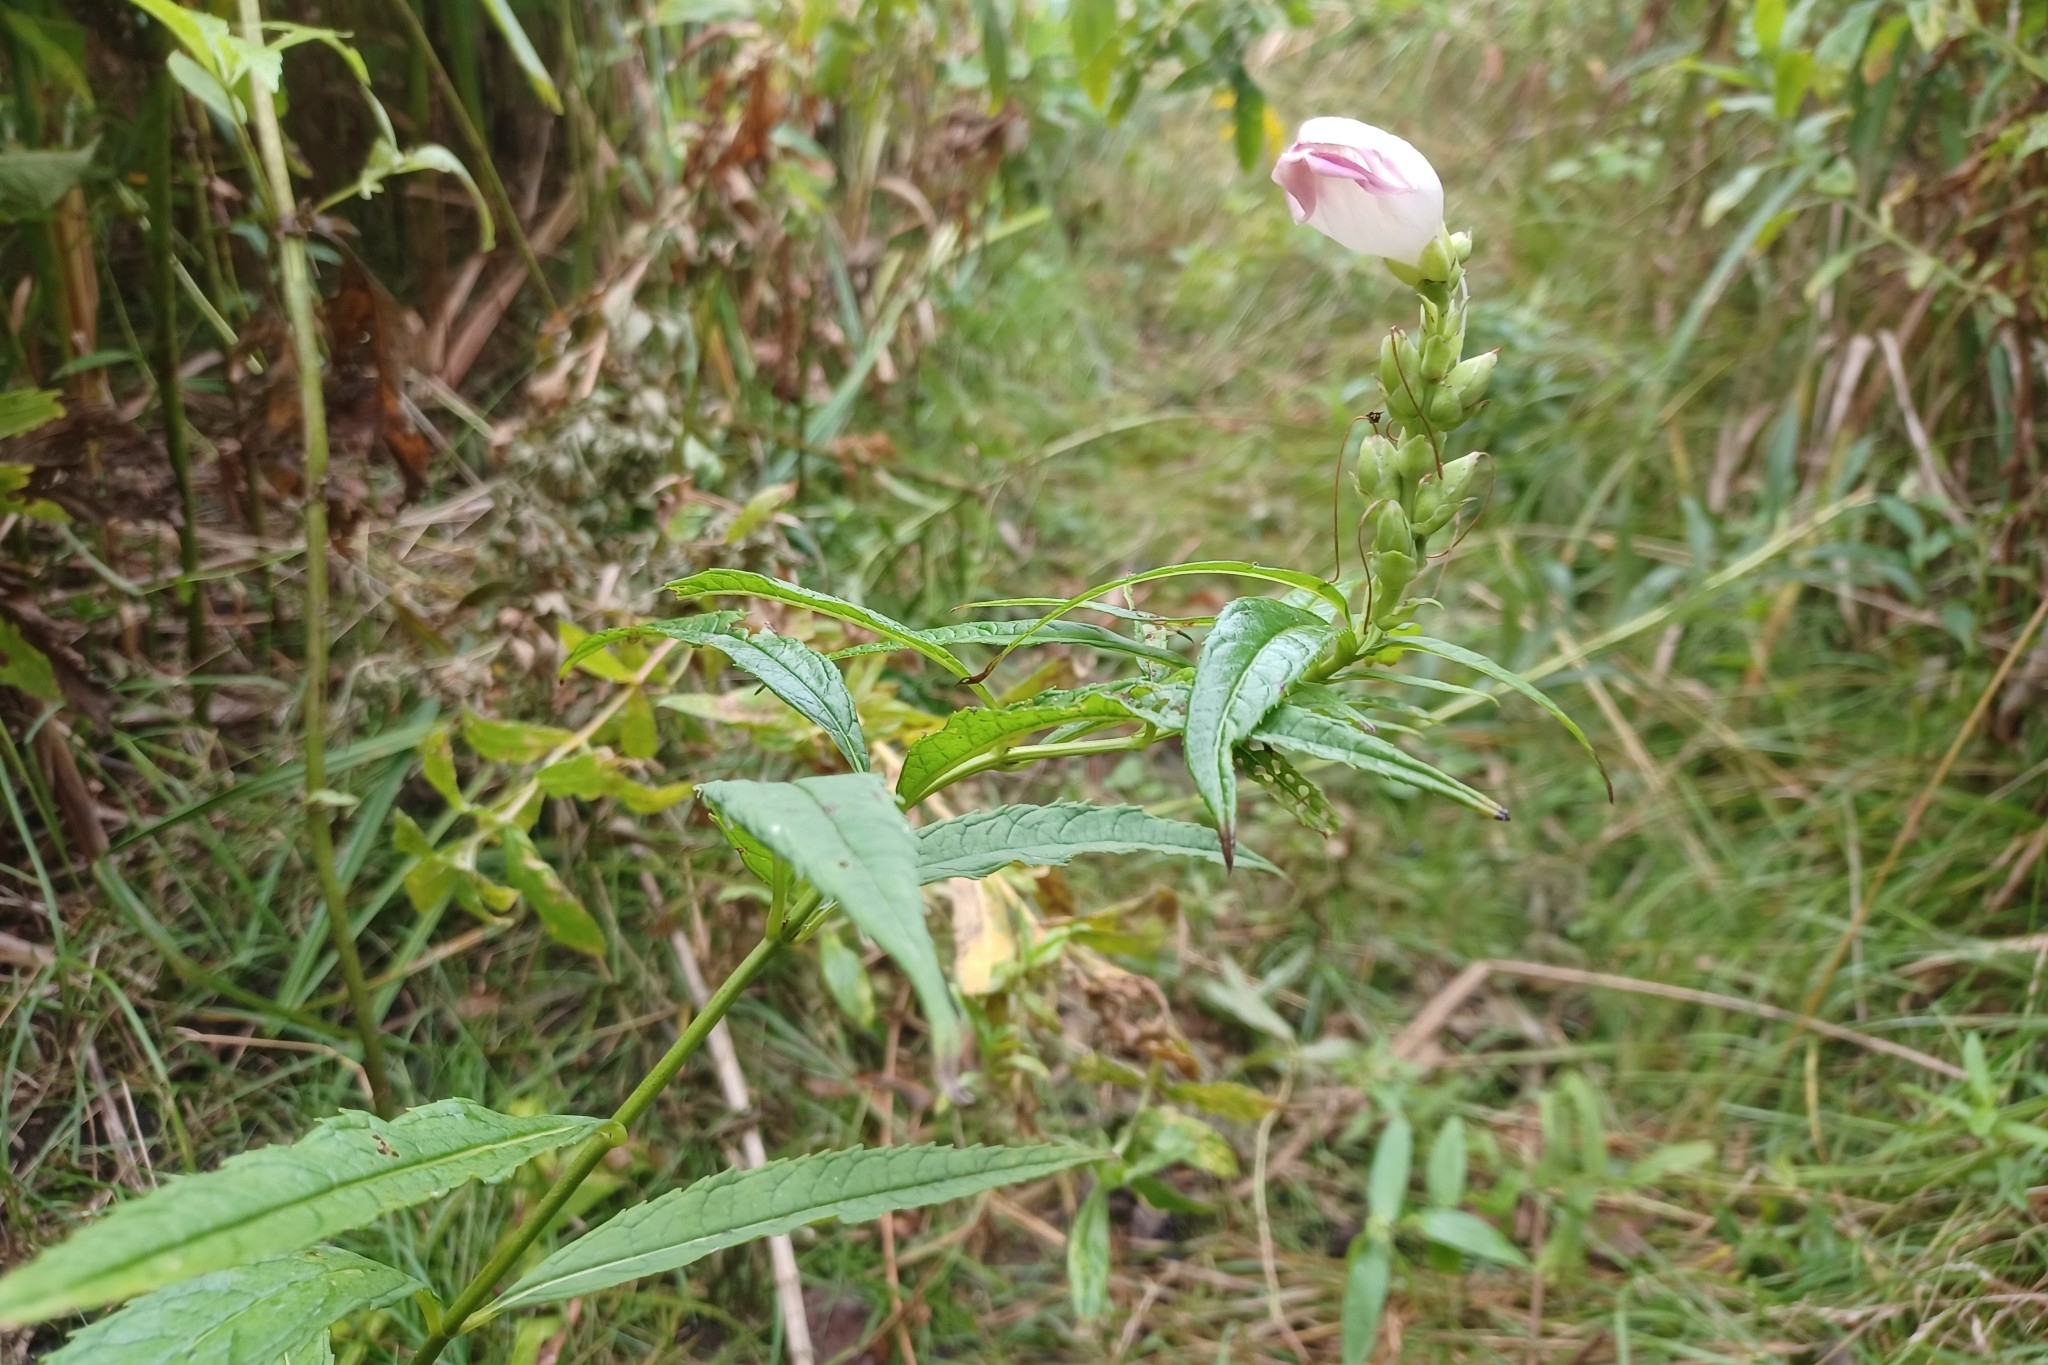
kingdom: Plantae
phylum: Tracheophyta
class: Magnoliopsida
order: Lamiales
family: Plantaginaceae
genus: Chelone
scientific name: Chelone glabra
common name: Snakehead
